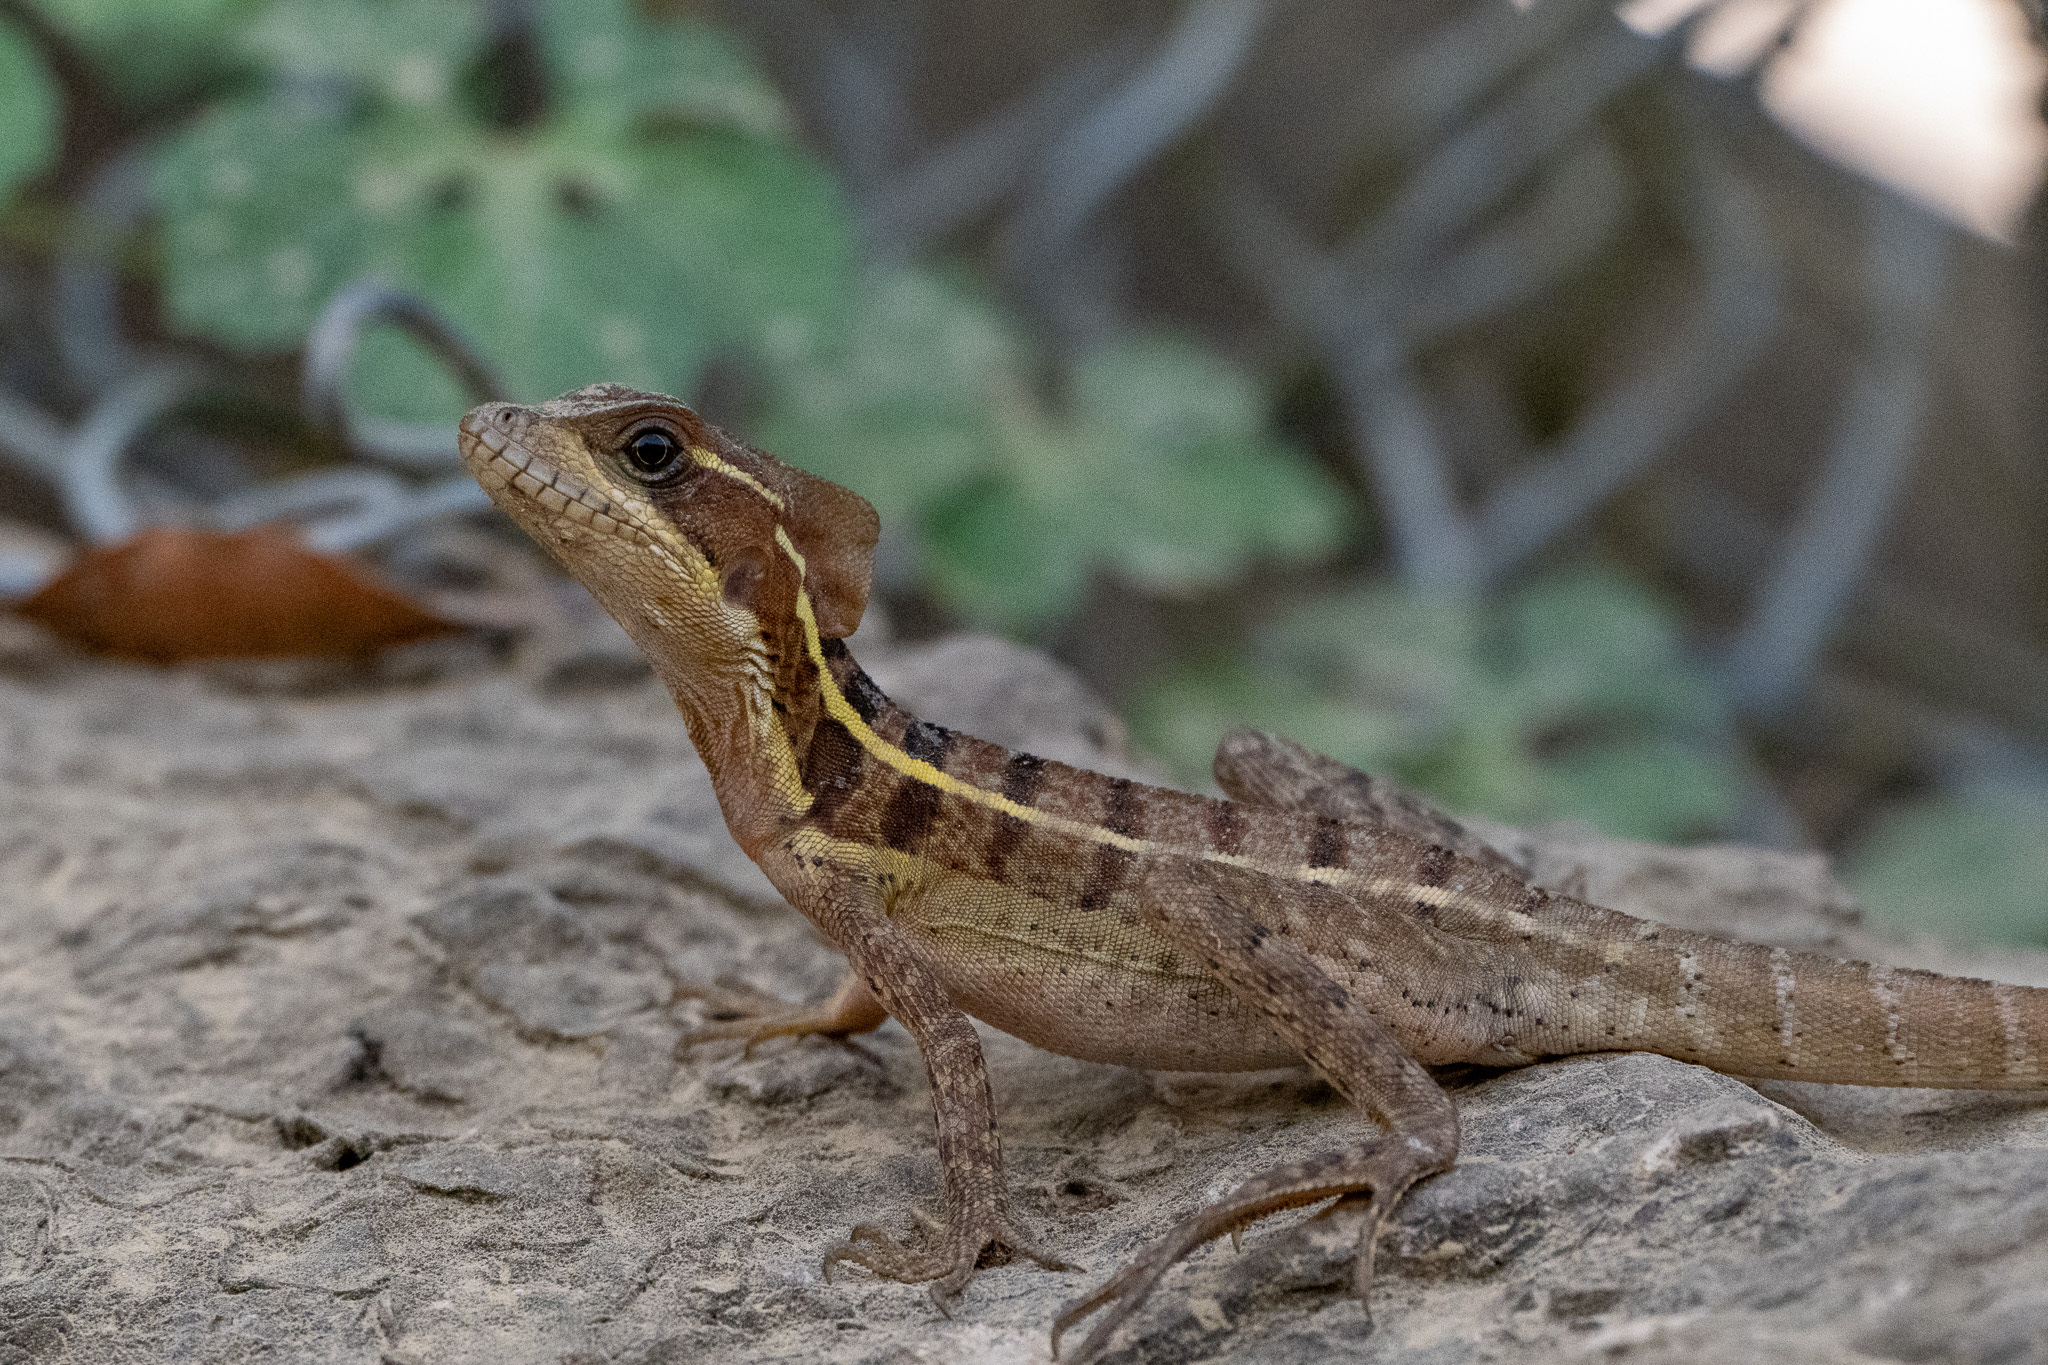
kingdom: Animalia
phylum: Chordata
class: Squamata
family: Corytophanidae
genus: Basiliscus
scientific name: Basiliscus vittatus
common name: Brown basilisk
